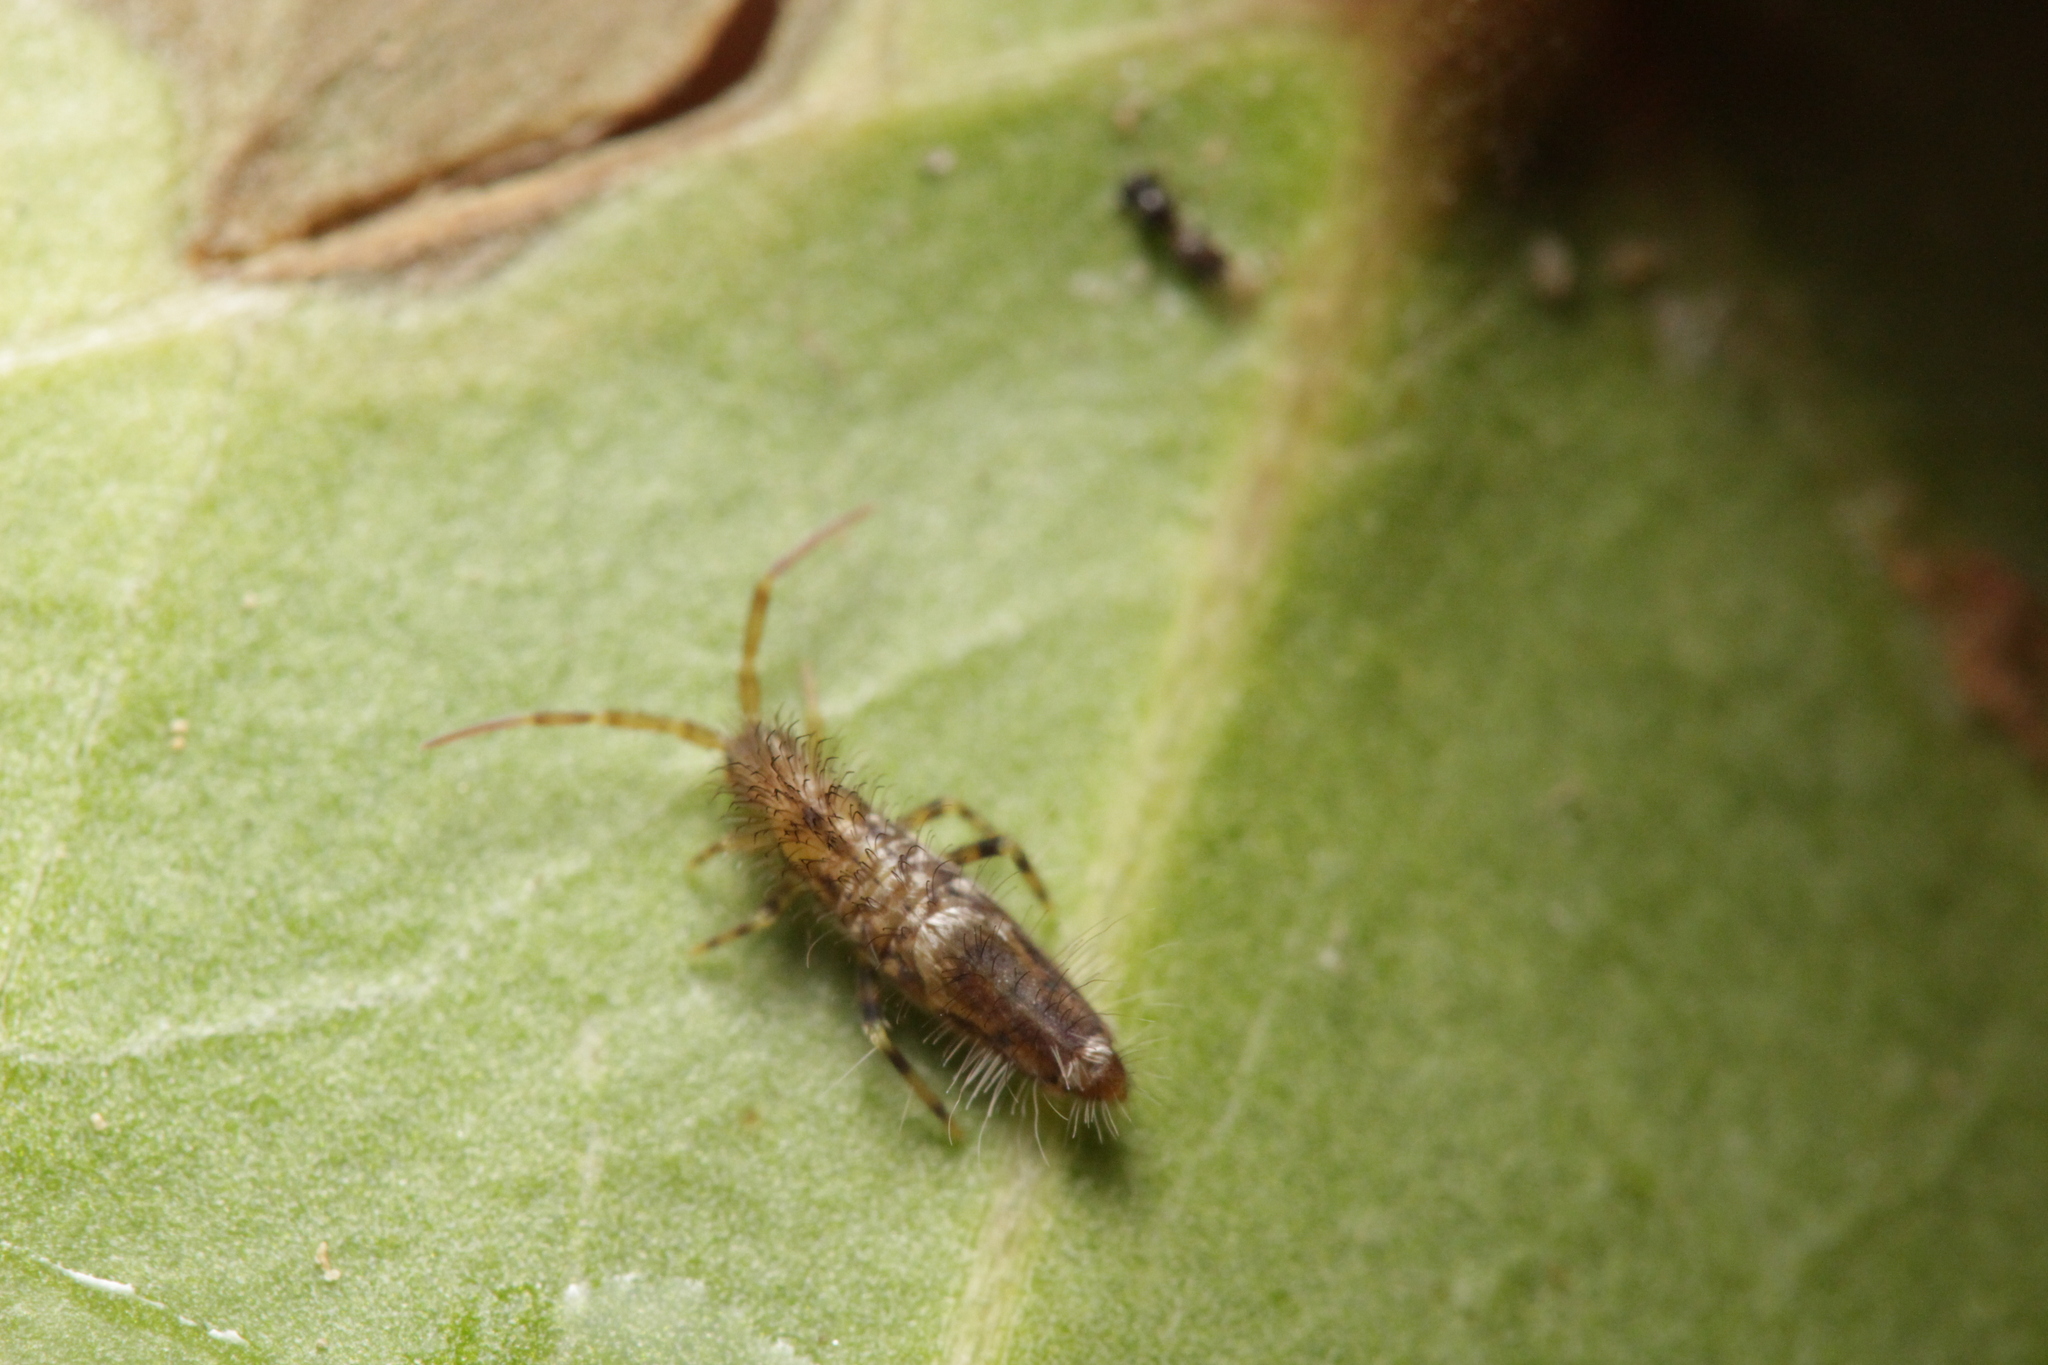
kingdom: Animalia
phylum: Arthropoda
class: Collembola
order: Entomobryomorpha
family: Entomobryidae
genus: Entomobrya
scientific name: Entomobrya dorsalis
